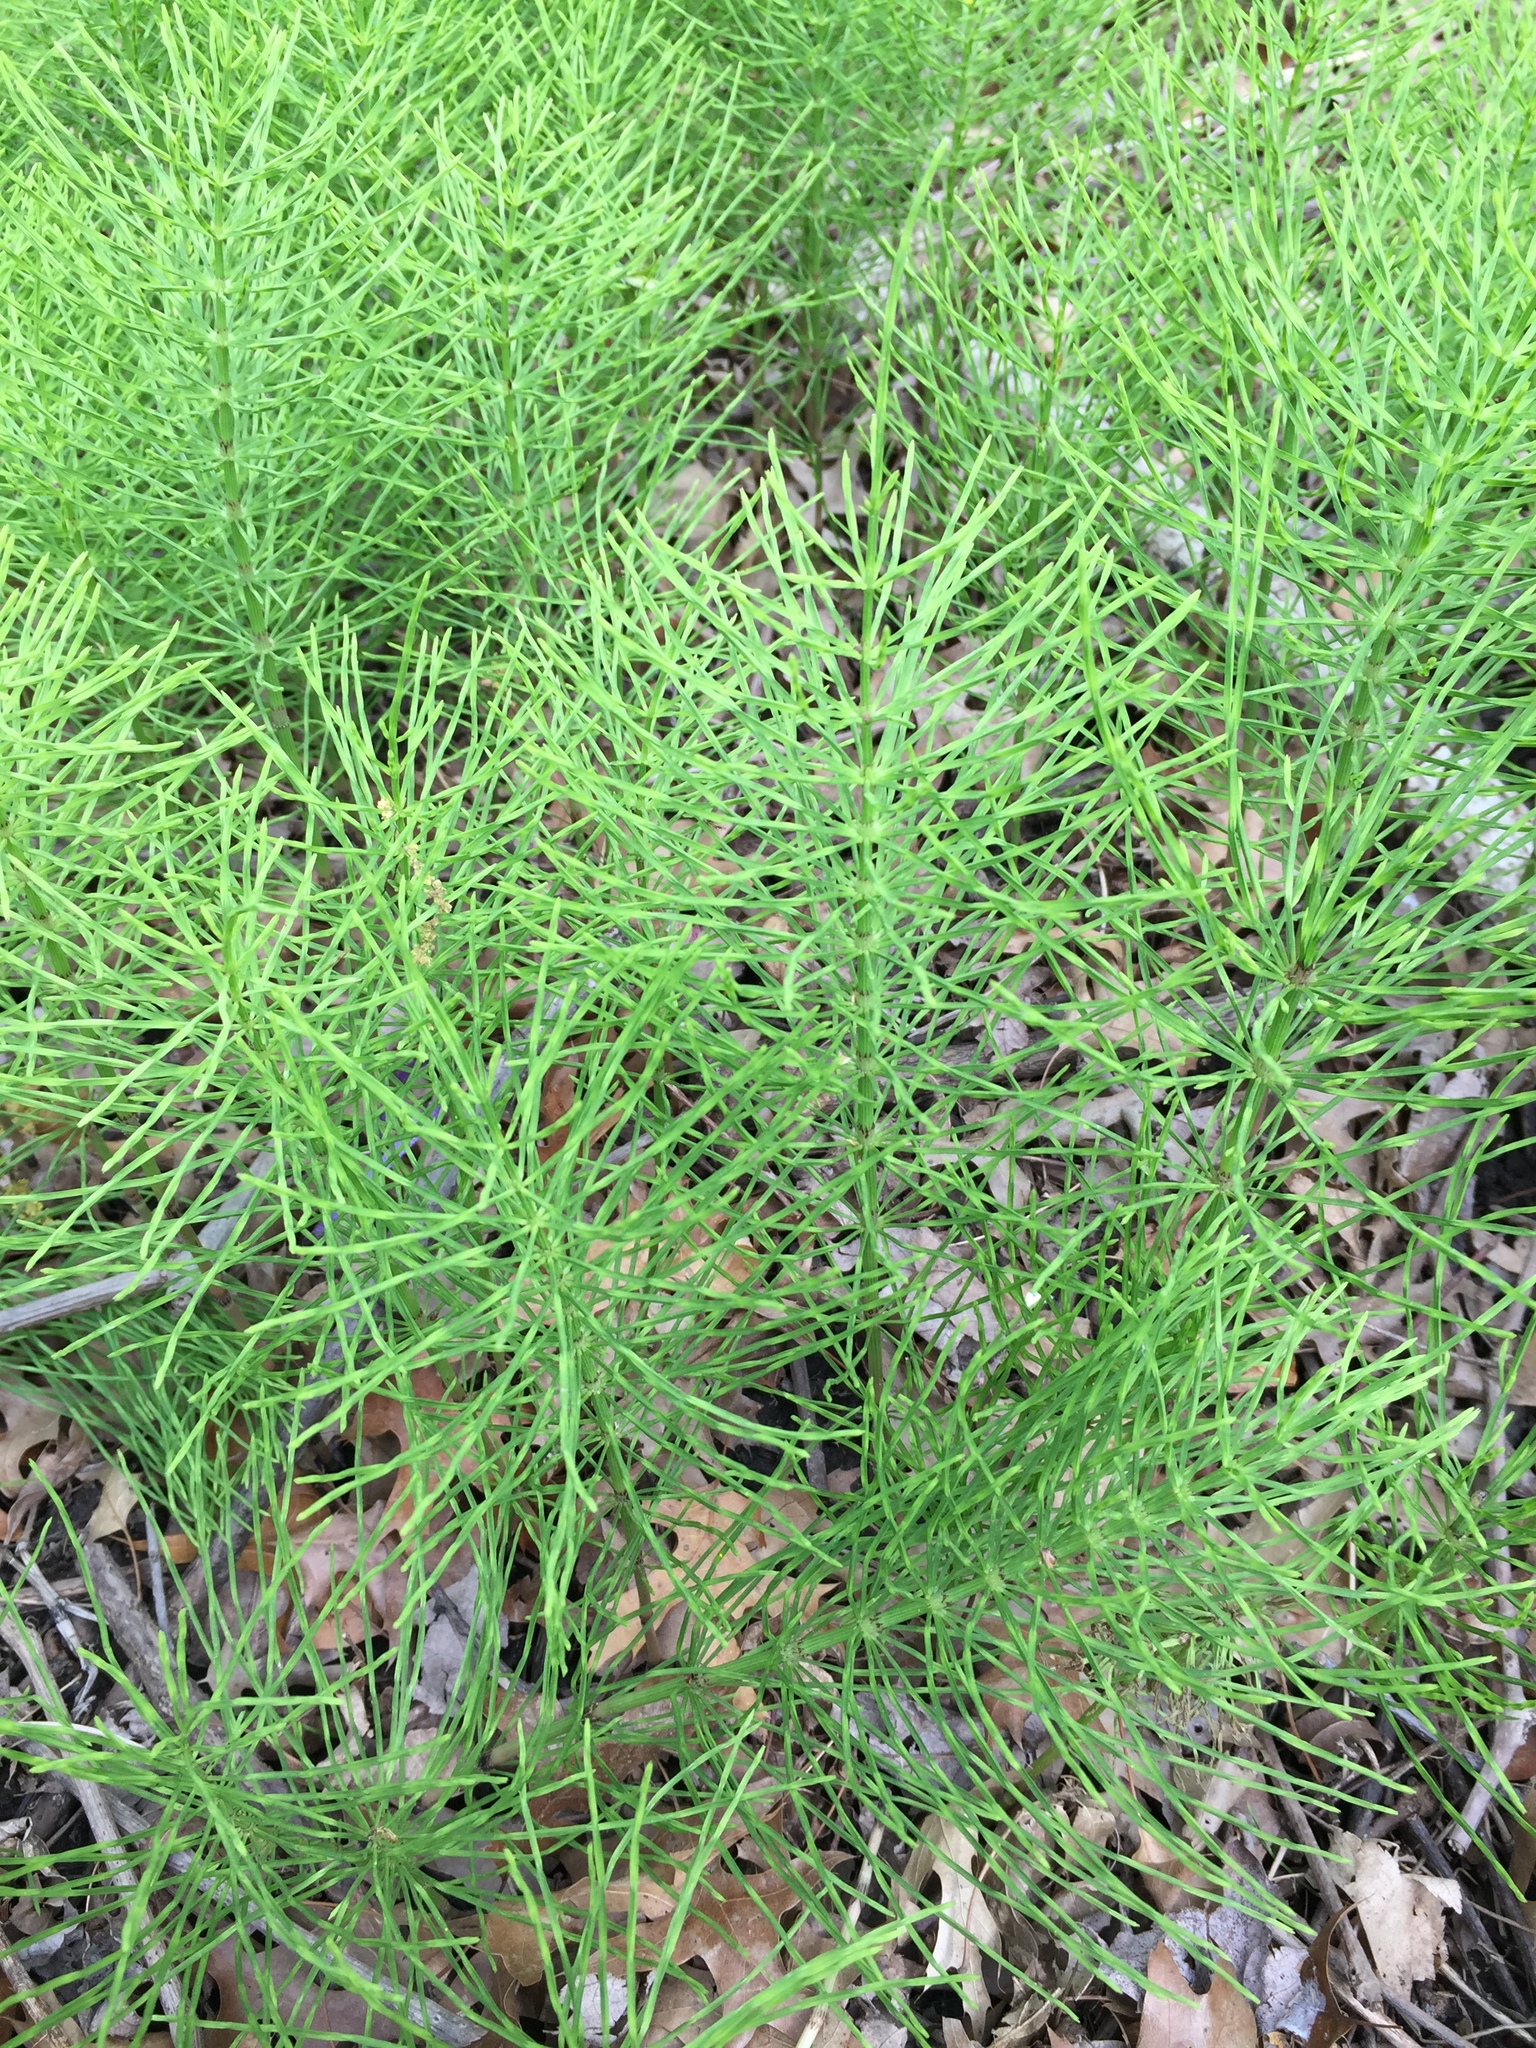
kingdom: Plantae
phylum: Tracheophyta
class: Polypodiopsida
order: Equisetales
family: Equisetaceae
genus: Equisetum
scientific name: Equisetum arvense
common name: Field horsetail
